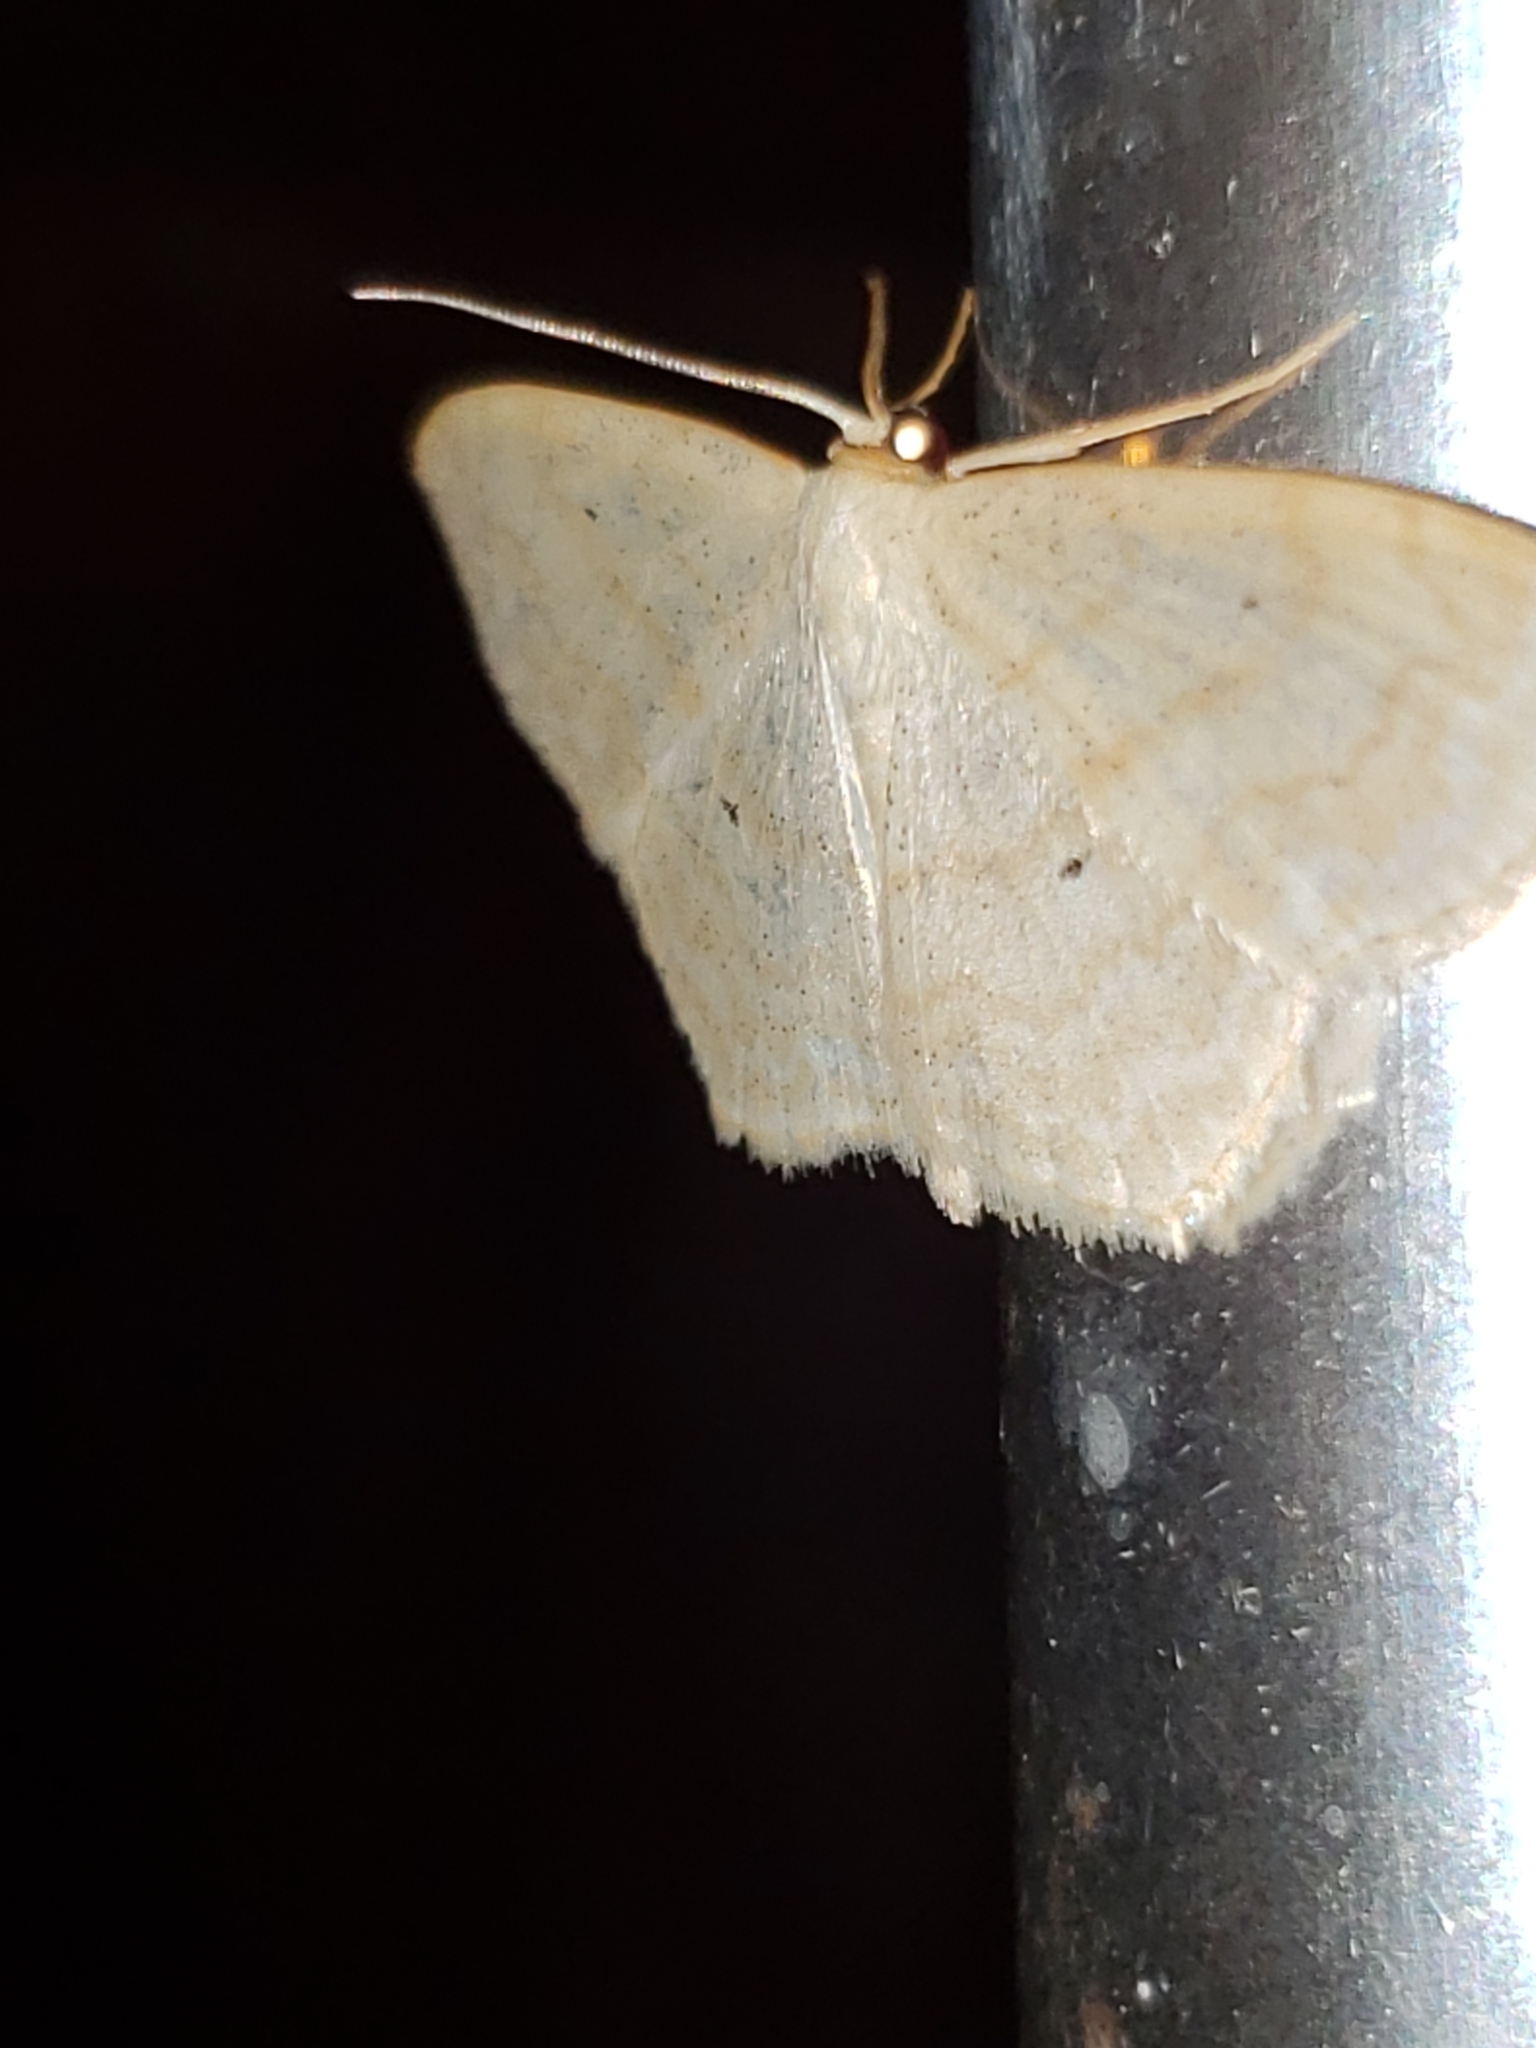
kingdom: Animalia
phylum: Arthropoda
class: Insecta
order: Lepidoptera
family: Geometridae
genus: Scopula
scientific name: Scopula limboundata
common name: Large lace border
